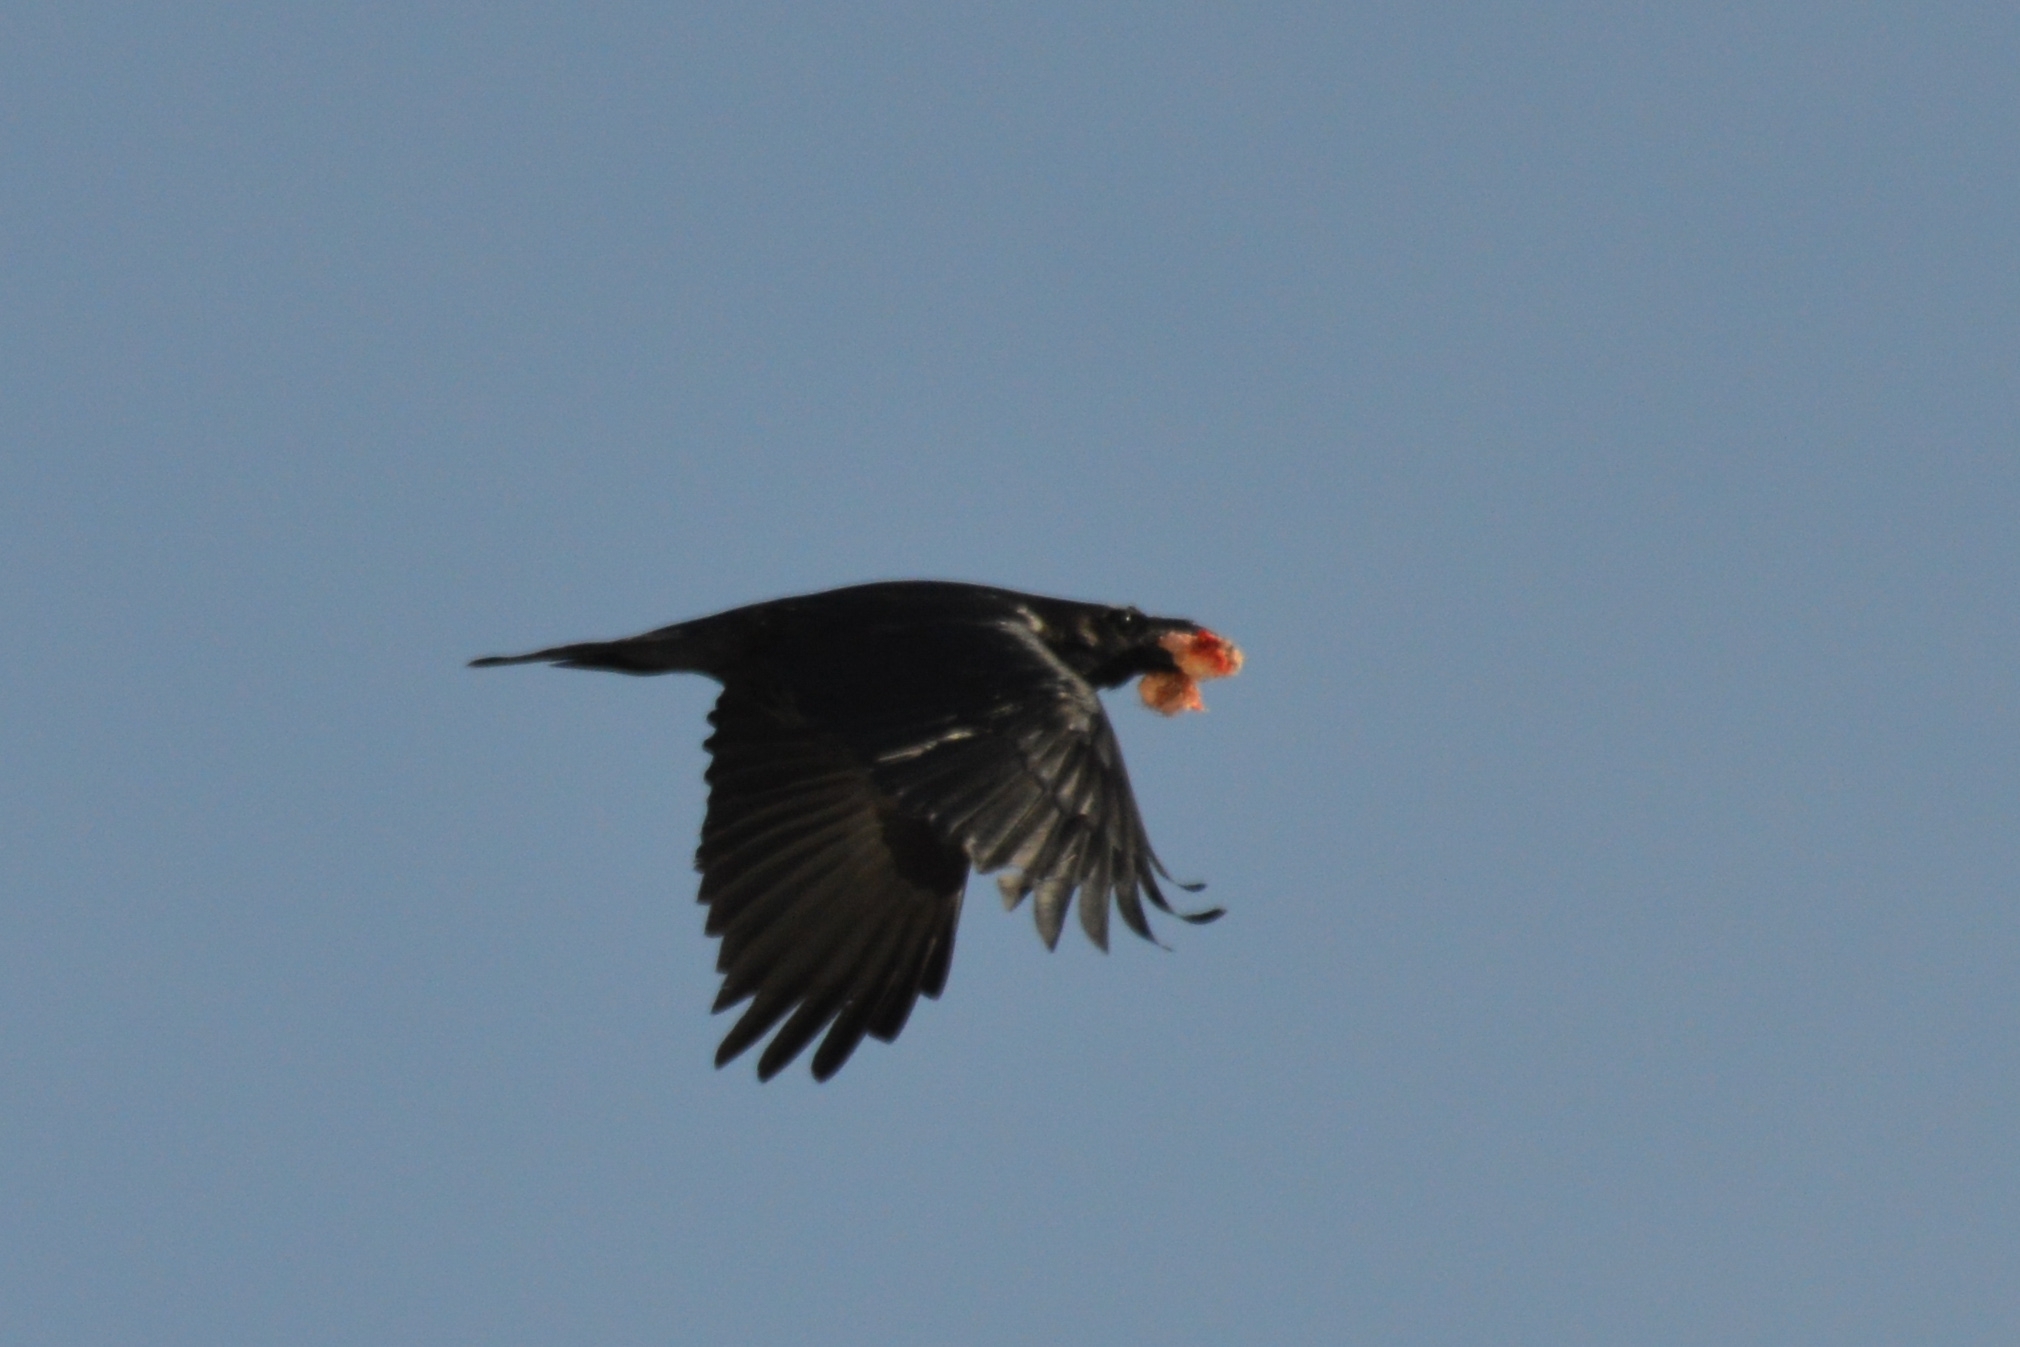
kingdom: Animalia
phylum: Chordata
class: Aves
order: Passeriformes
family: Corvidae
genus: Corvus
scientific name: Corvus corax
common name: Common raven
